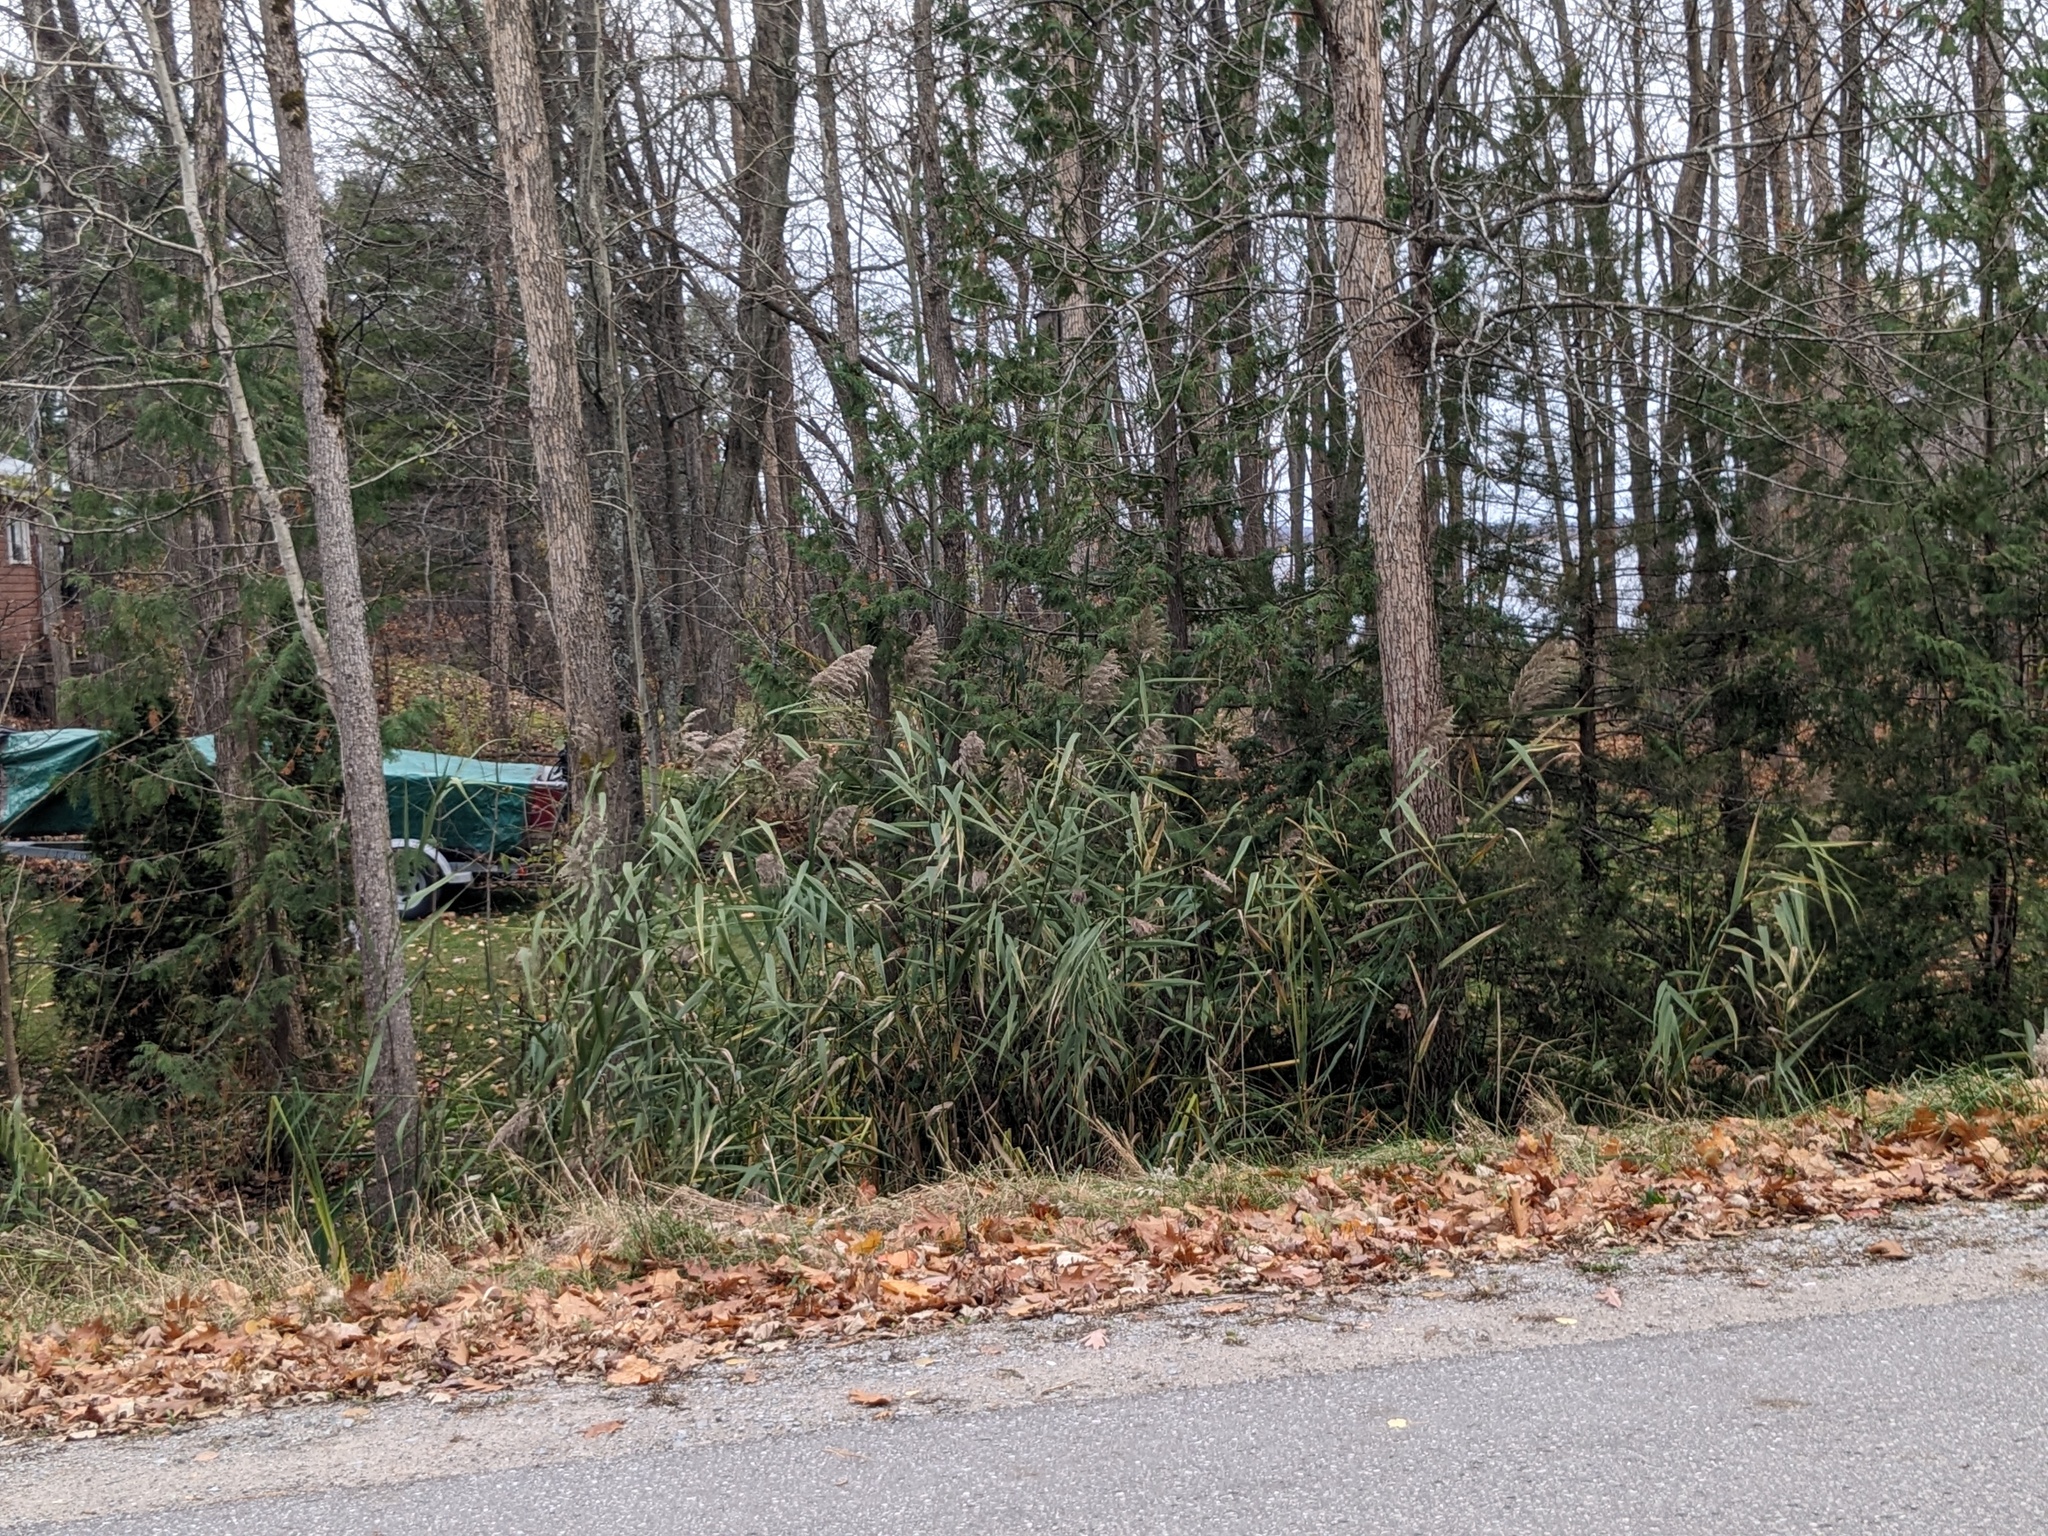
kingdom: Plantae
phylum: Tracheophyta
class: Liliopsida
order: Poales
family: Poaceae
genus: Phragmites
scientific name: Phragmites australis
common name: Common reed
